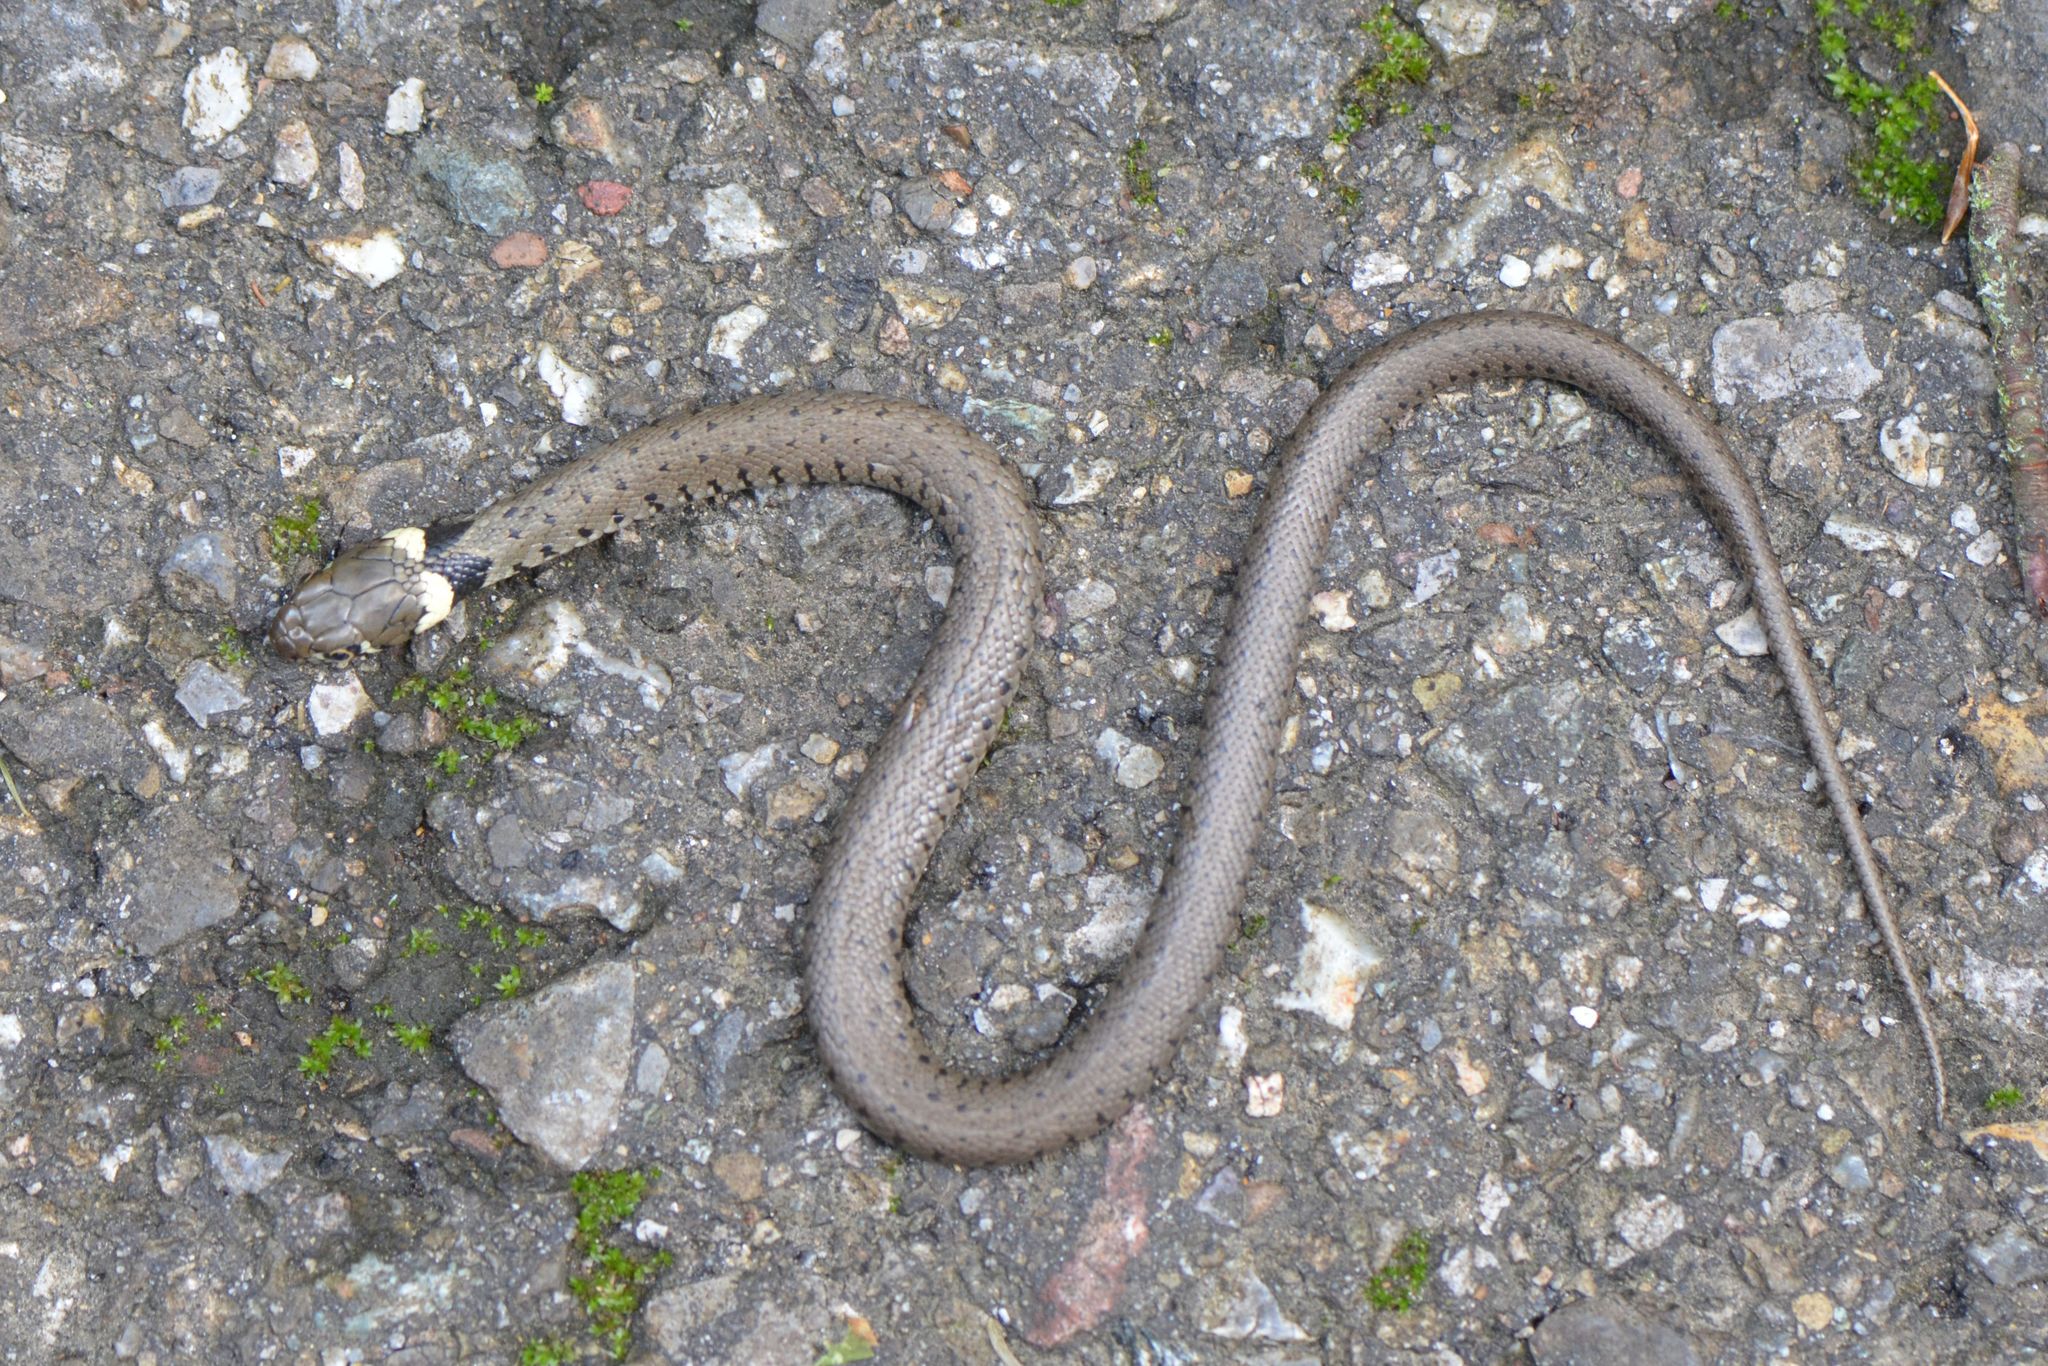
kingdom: Animalia
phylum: Chordata
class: Squamata
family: Colubridae
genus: Natrix
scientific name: Natrix helvetica
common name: Banded grass snake
